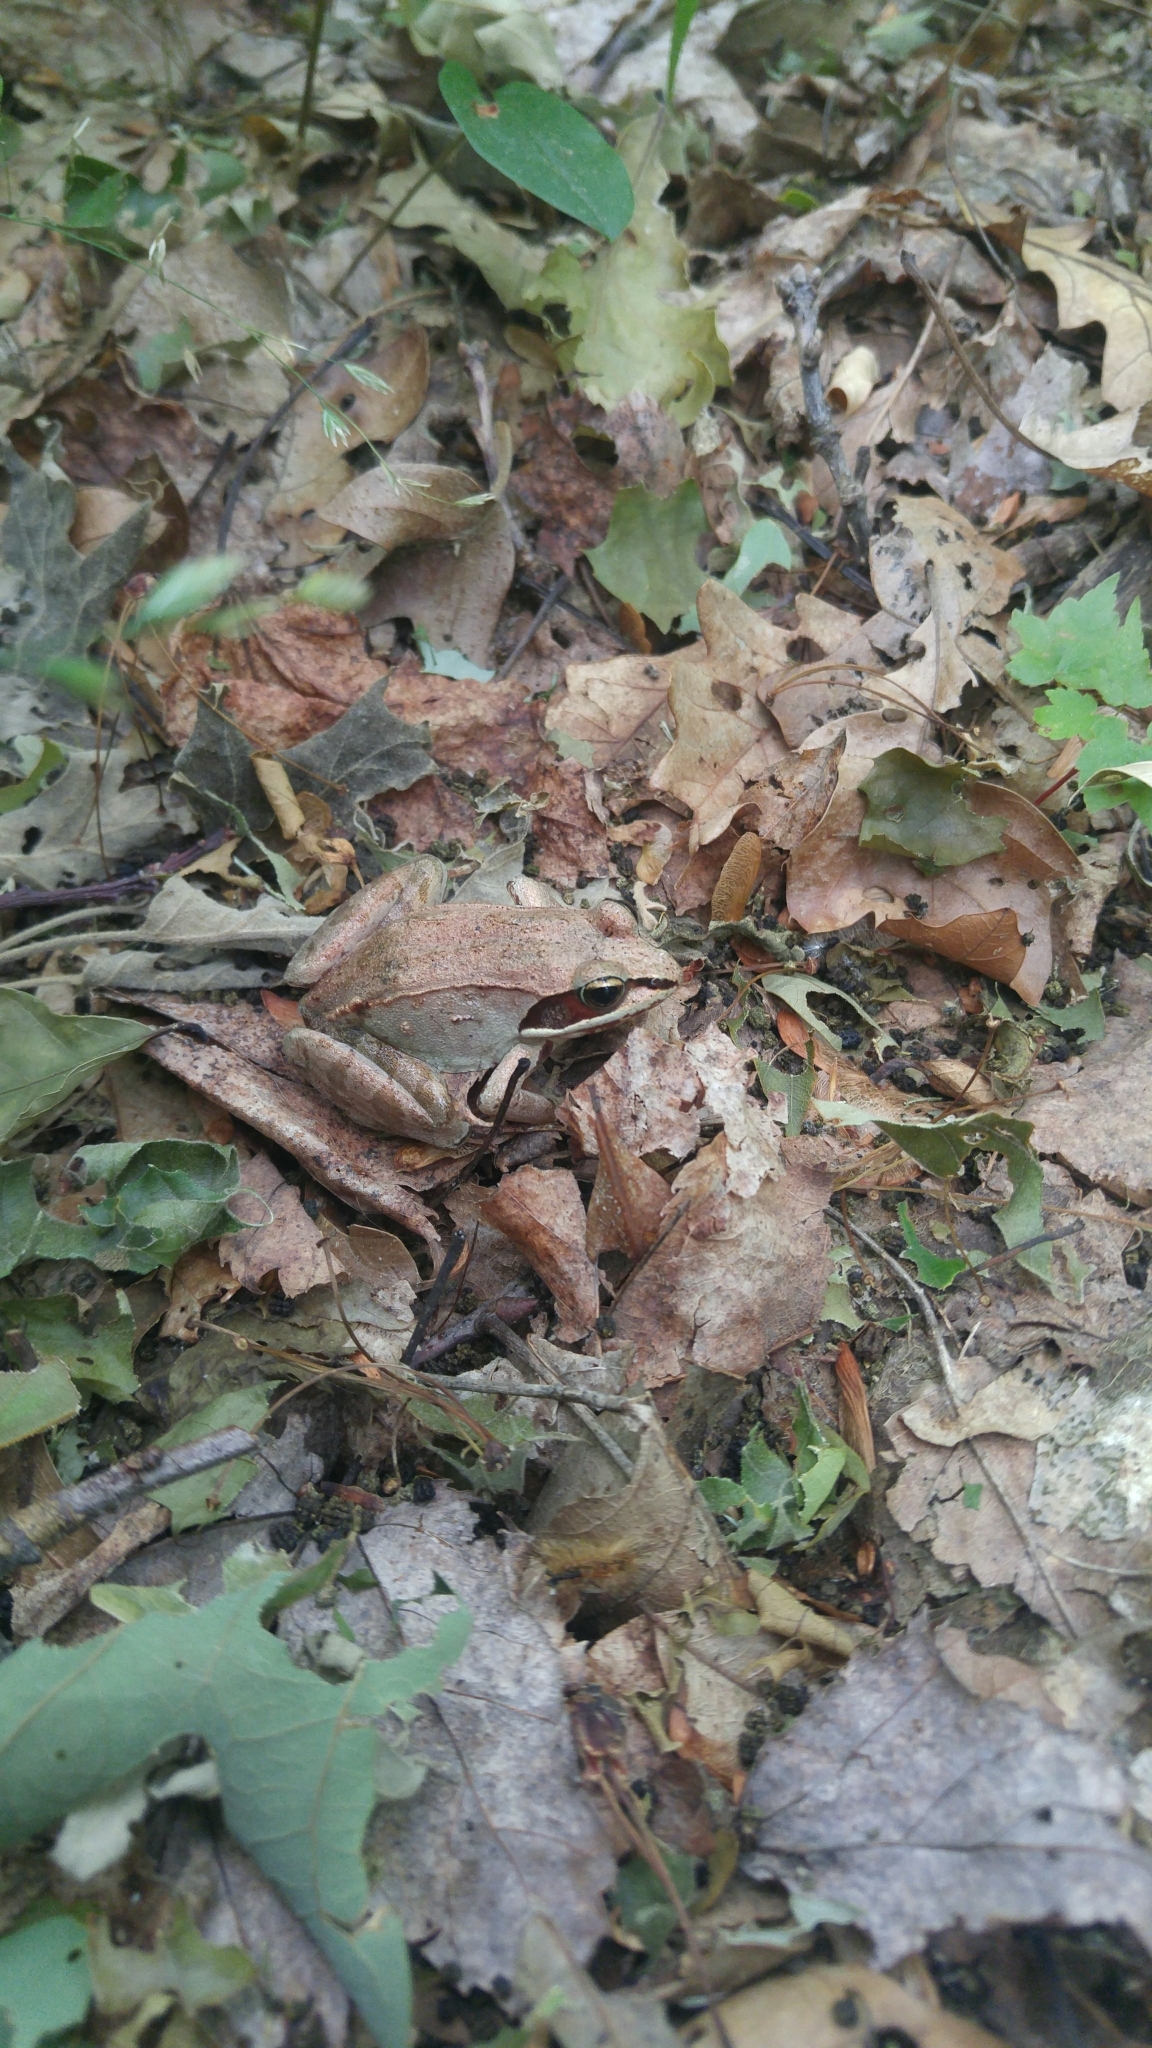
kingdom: Animalia
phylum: Chordata
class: Amphibia
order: Anura
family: Ranidae
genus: Lithobates
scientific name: Lithobates sylvaticus
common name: Wood frog
